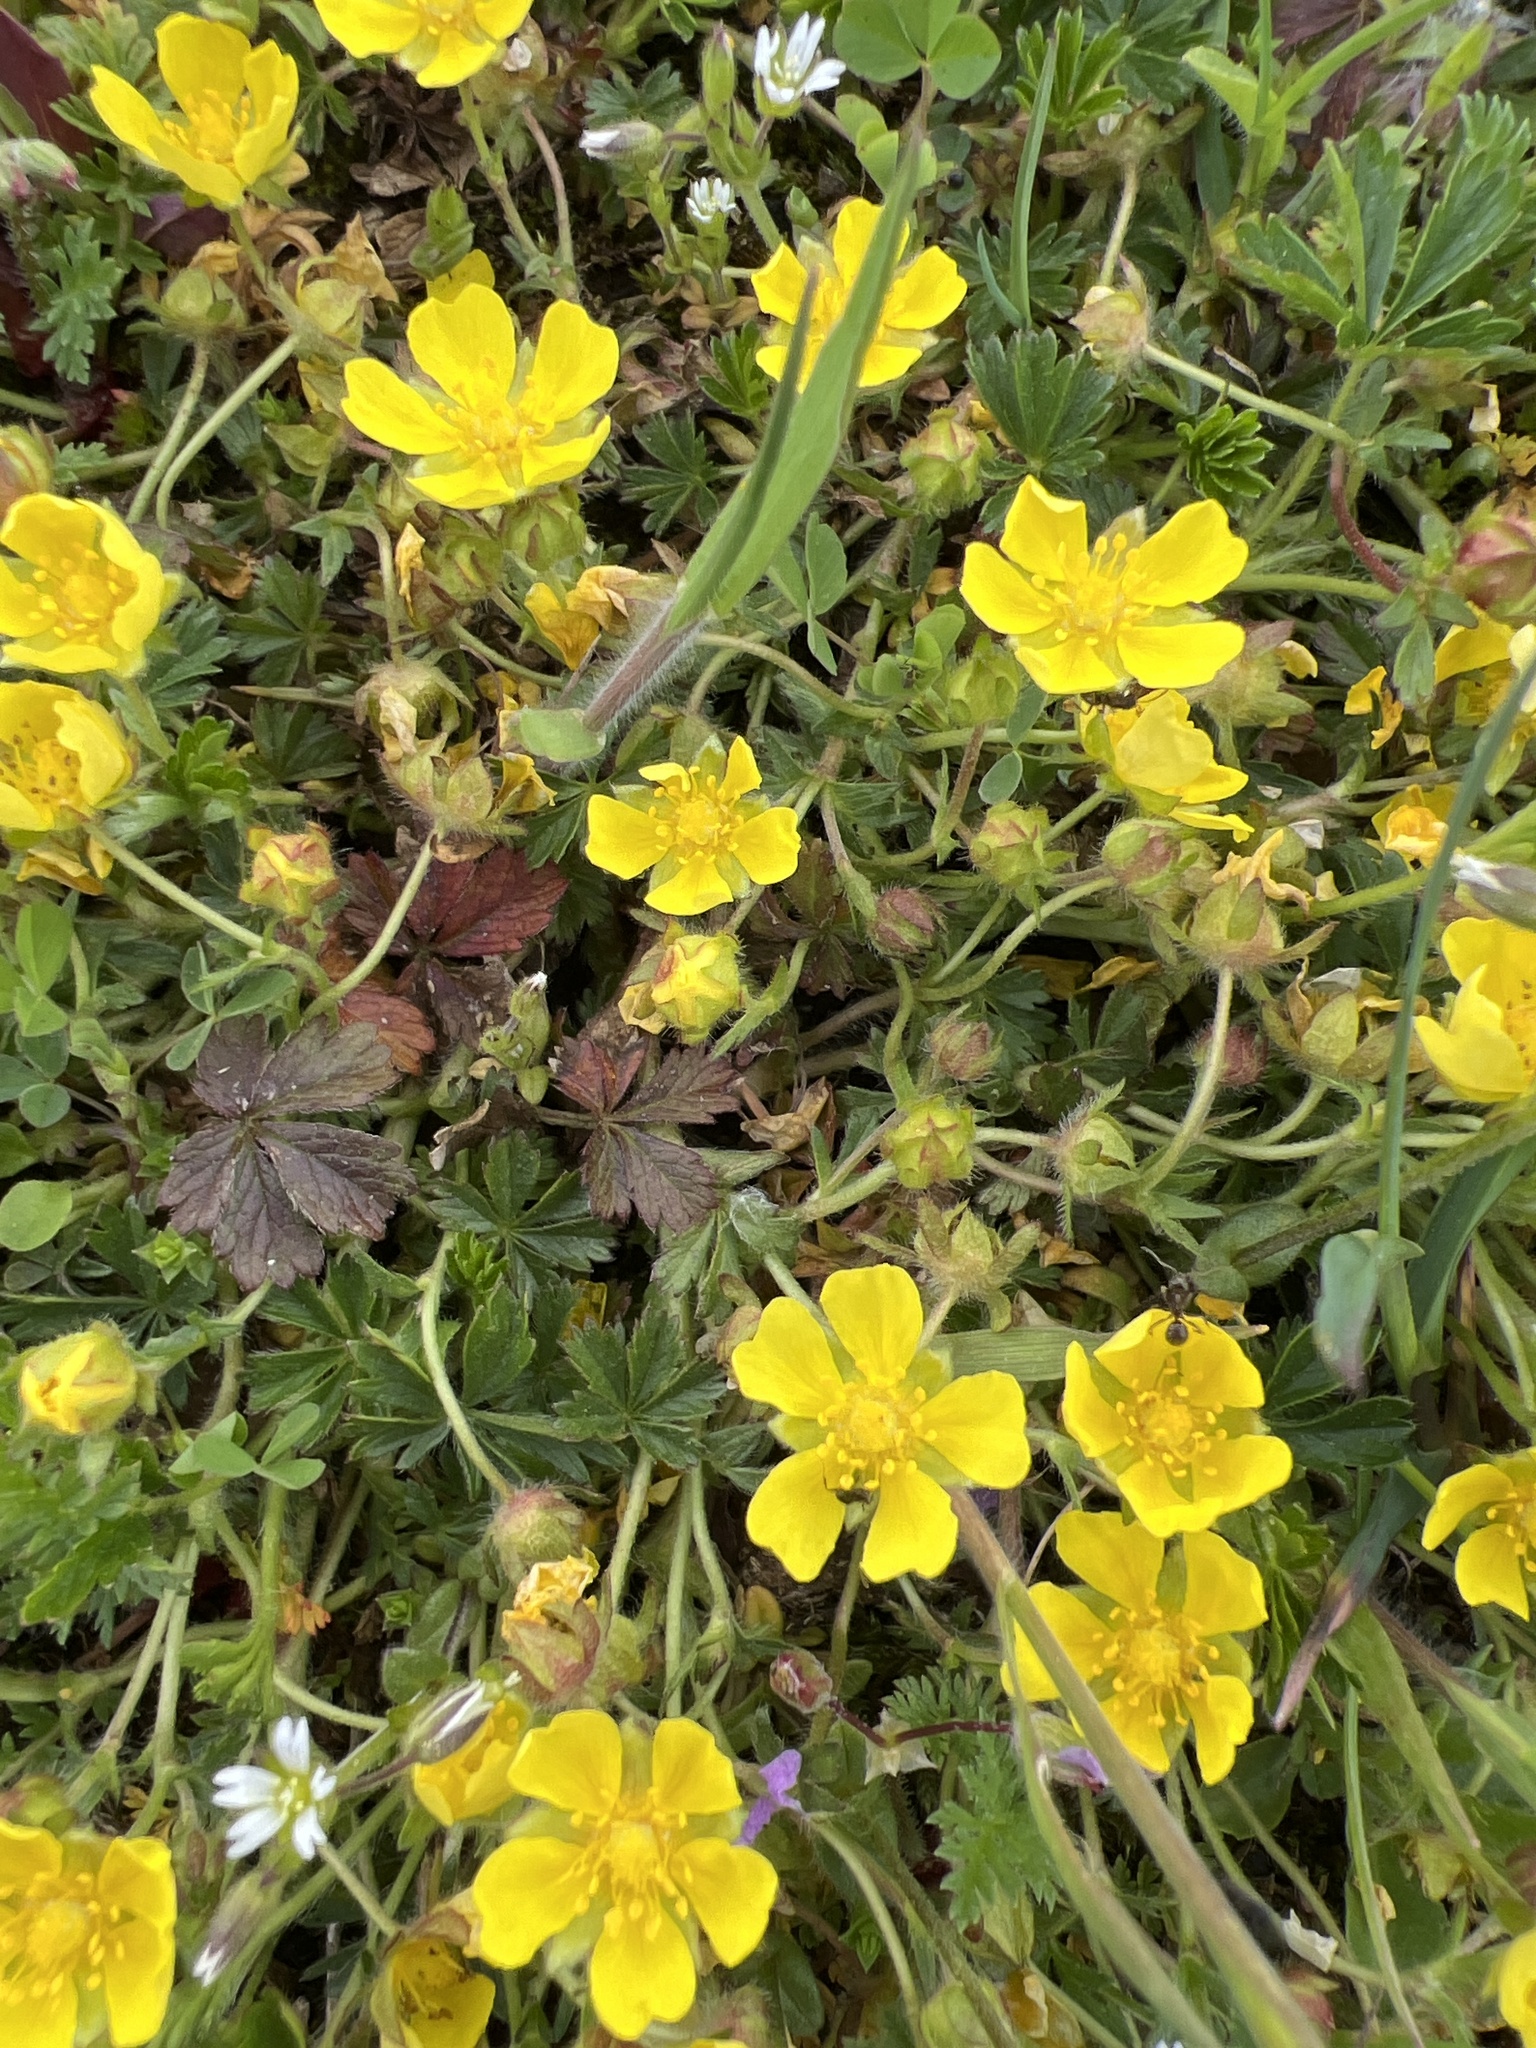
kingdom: Plantae
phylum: Tracheophyta
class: Magnoliopsida
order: Rosales
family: Rosaceae
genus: Potentilla
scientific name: Potentilla verna
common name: Spring cinquefoil
